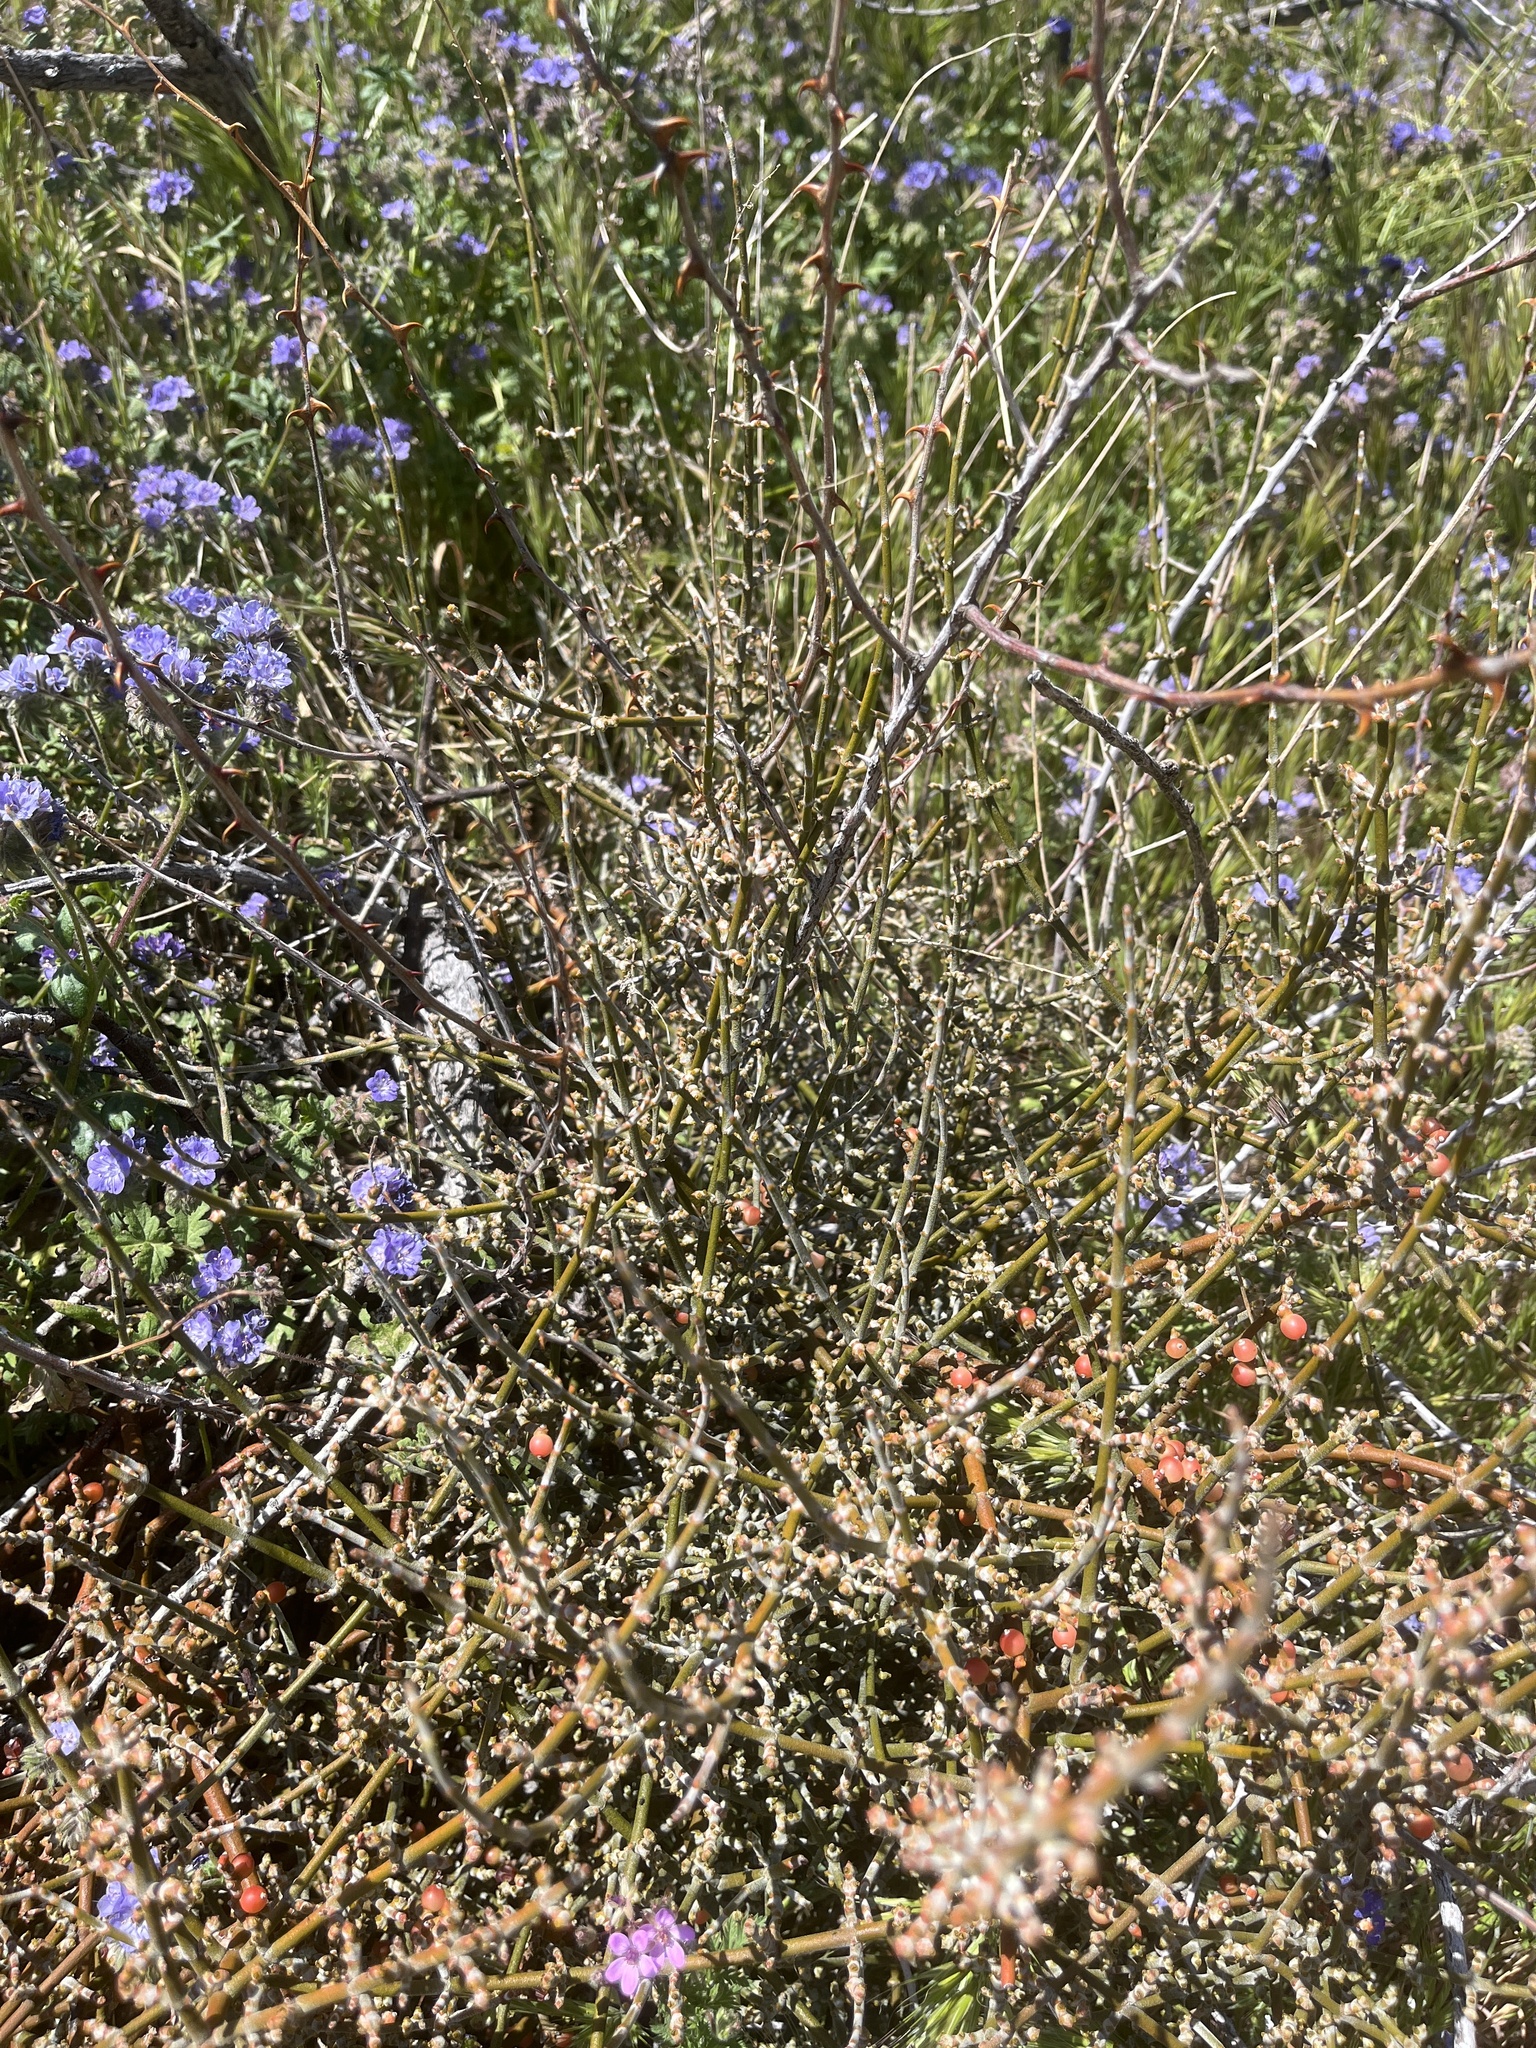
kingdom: Plantae
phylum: Tracheophyta
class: Magnoliopsida
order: Santalales
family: Viscaceae
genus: Phoradendron
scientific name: Phoradendron californicum
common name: Acacia mistletoe
